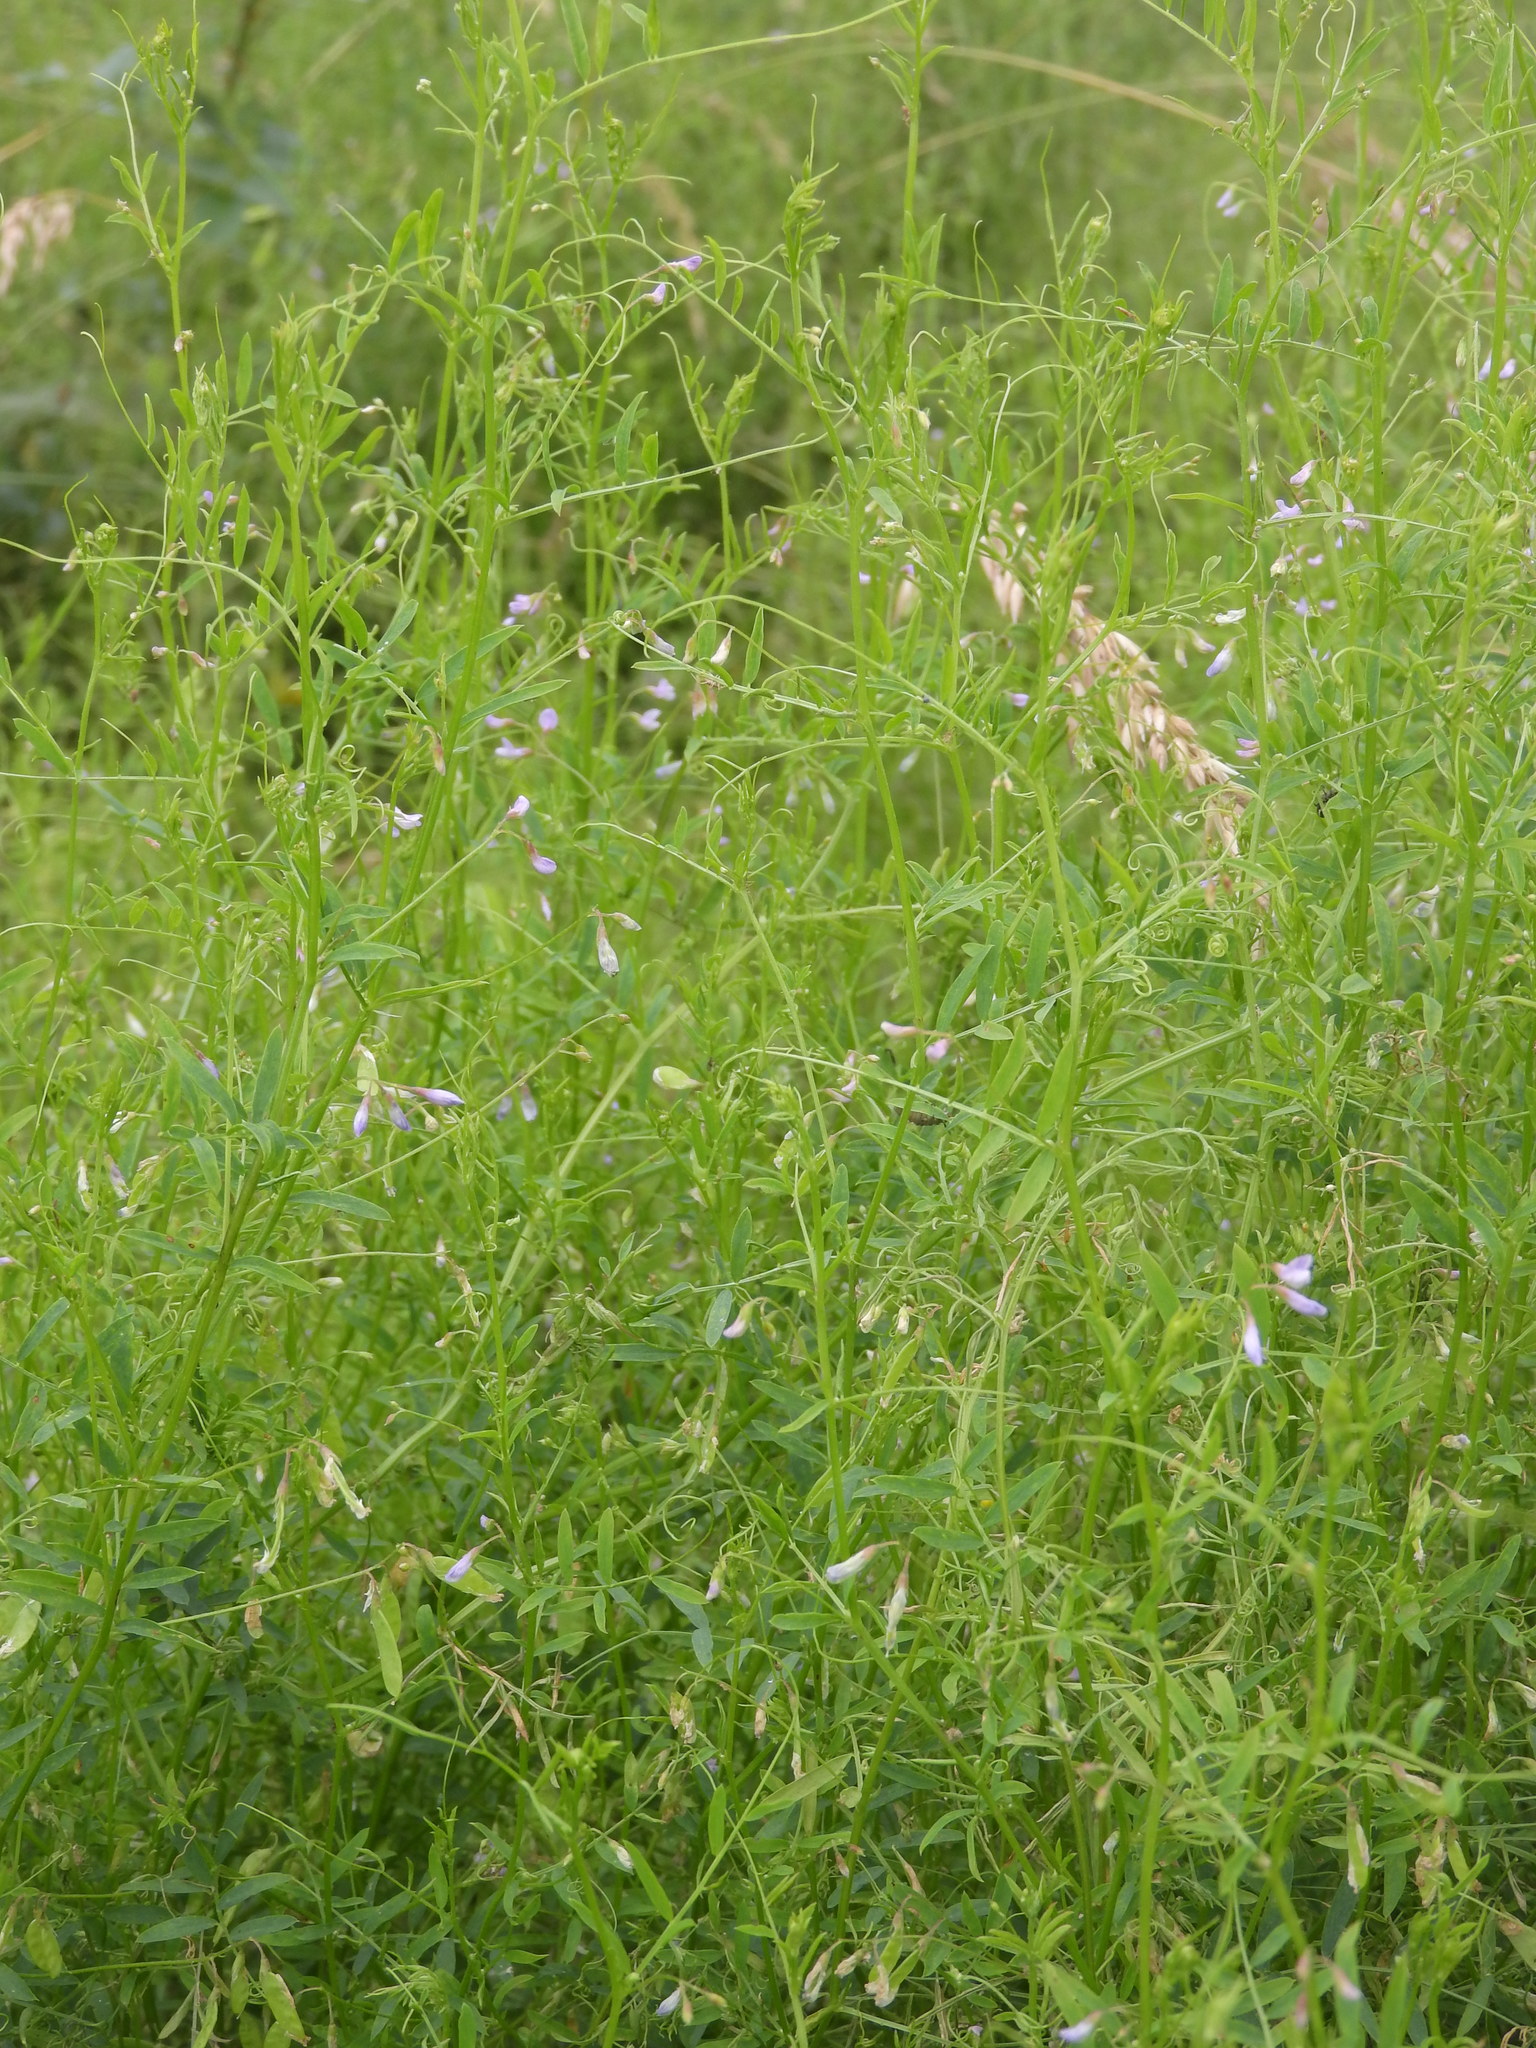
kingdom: Plantae
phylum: Tracheophyta
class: Magnoliopsida
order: Fabales
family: Fabaceae
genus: Vicia
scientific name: Vicia tetrasperma
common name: Smooth tare
